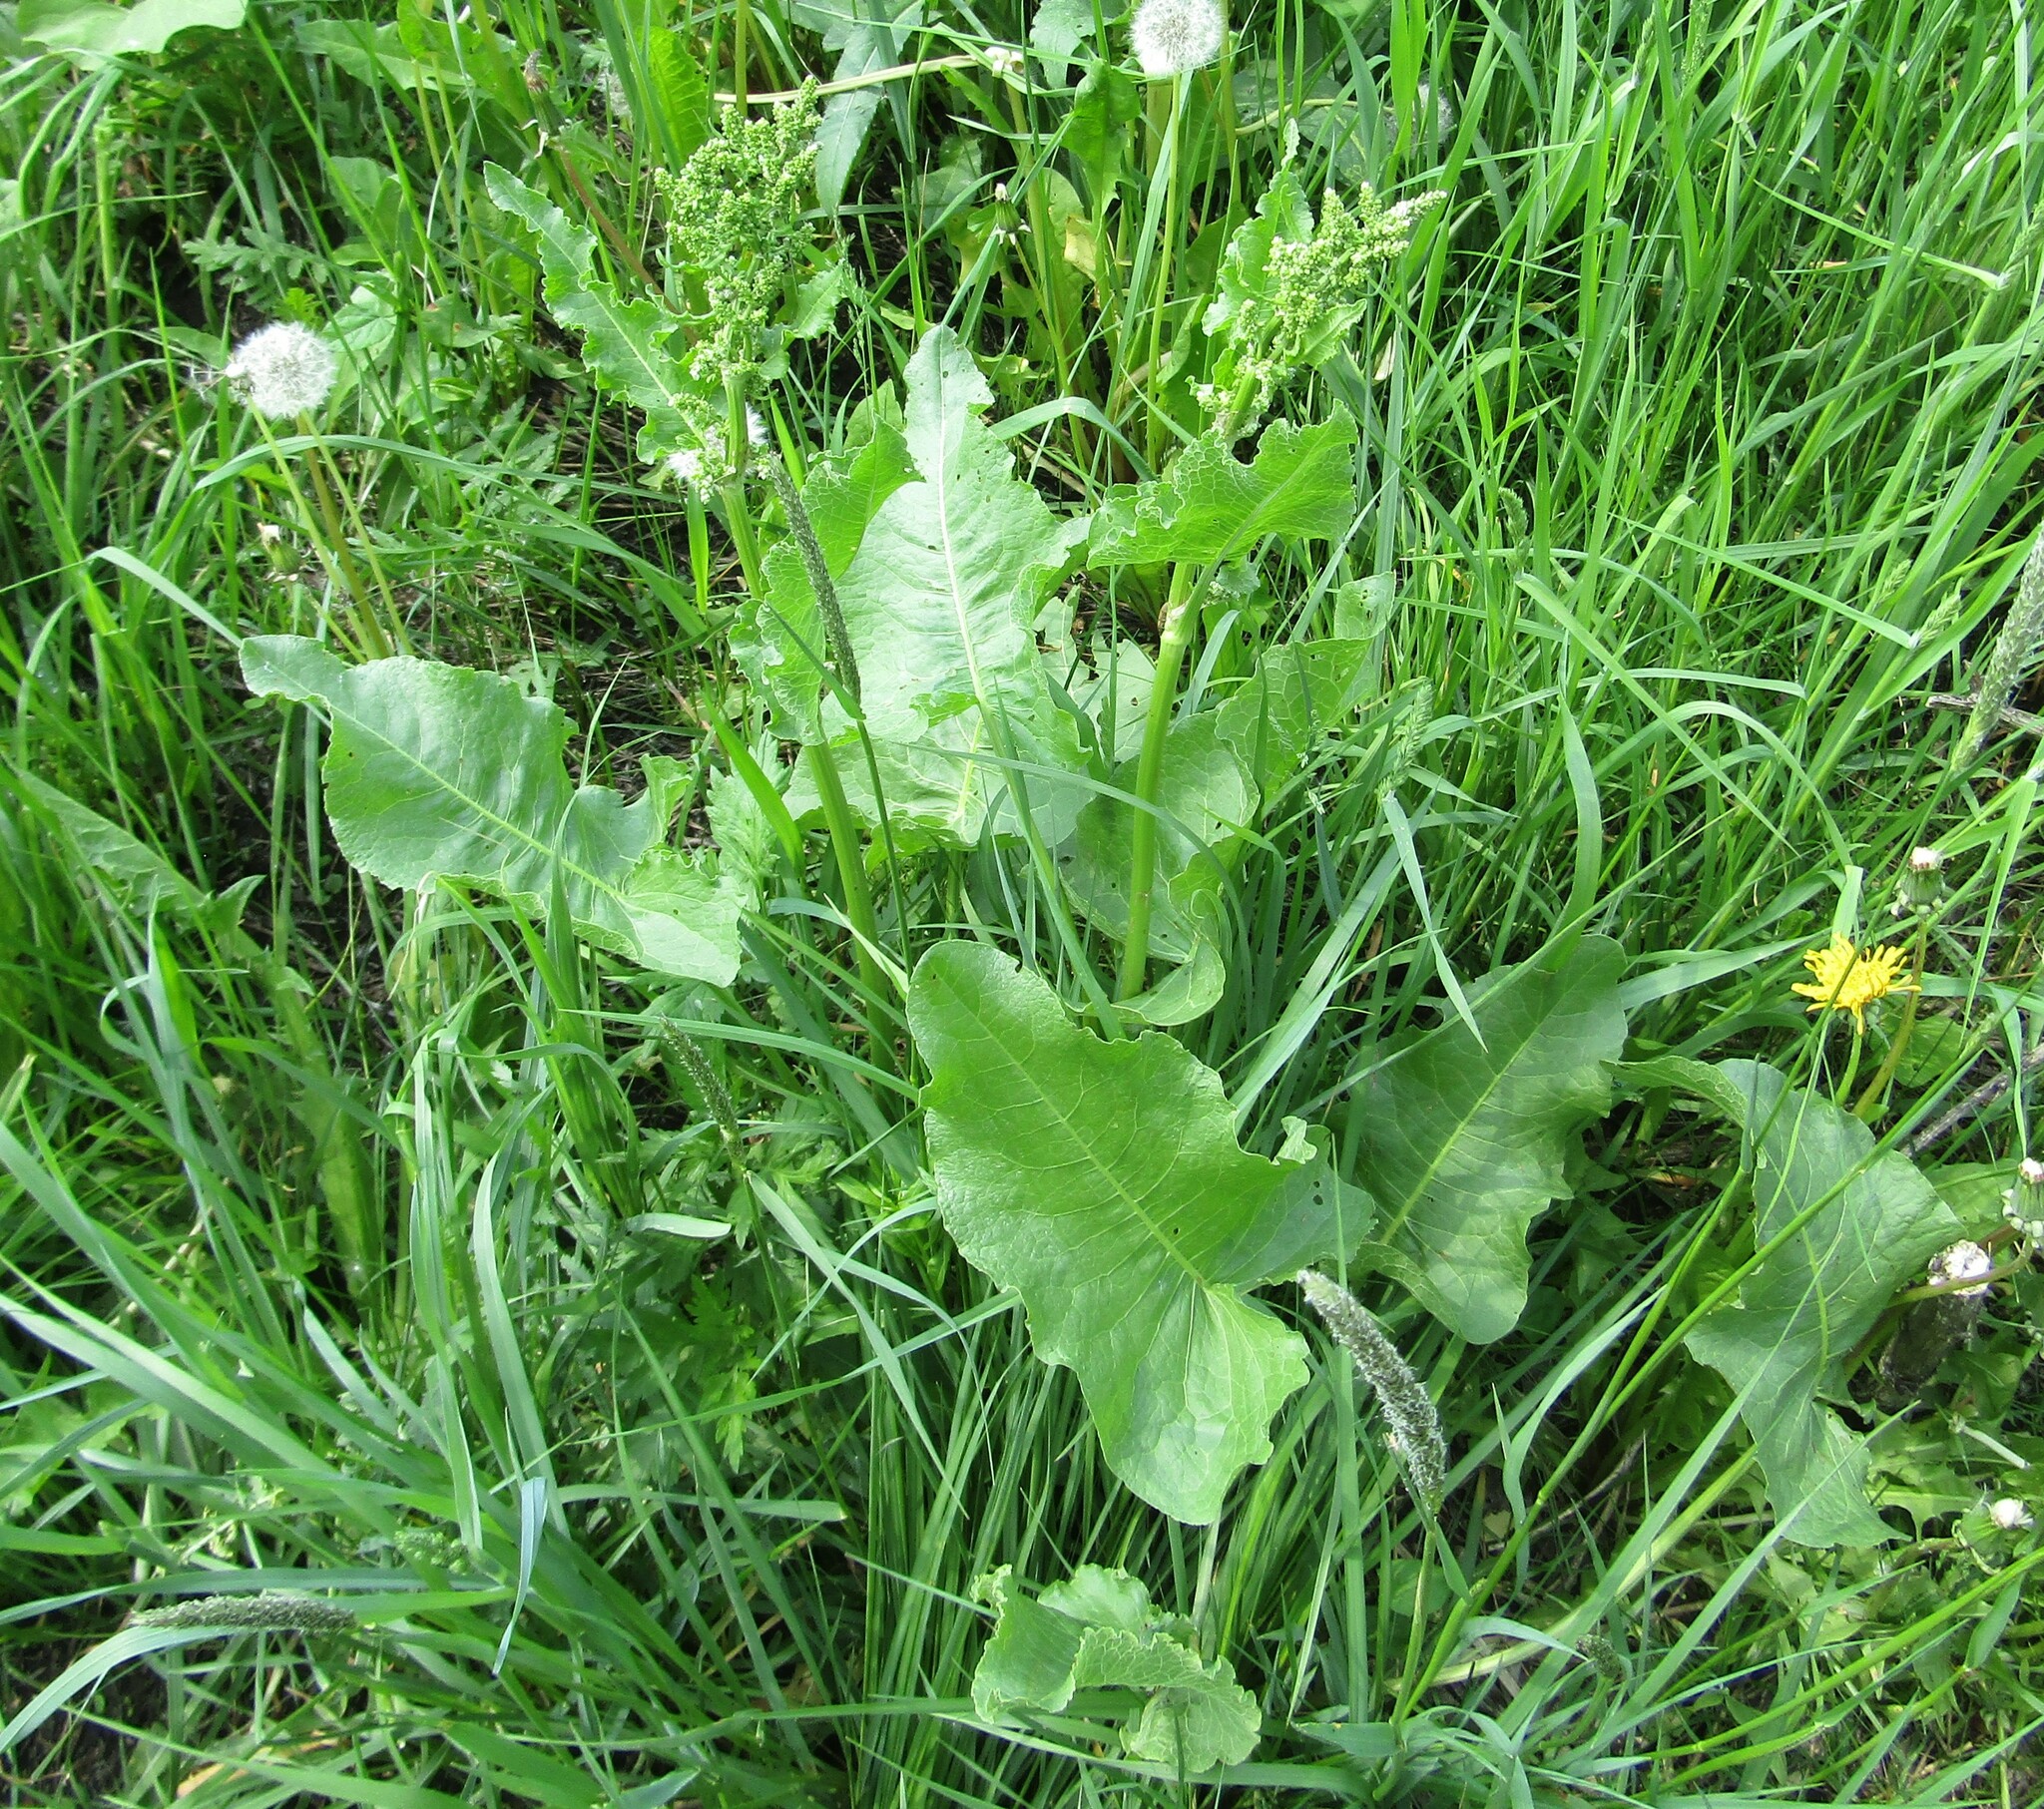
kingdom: Plantae
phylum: Tracheophyta
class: Magnoliopsida
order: Caryophyllales
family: Polygonaceae
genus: Rumex
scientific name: Rumex confertus
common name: Russian dock
